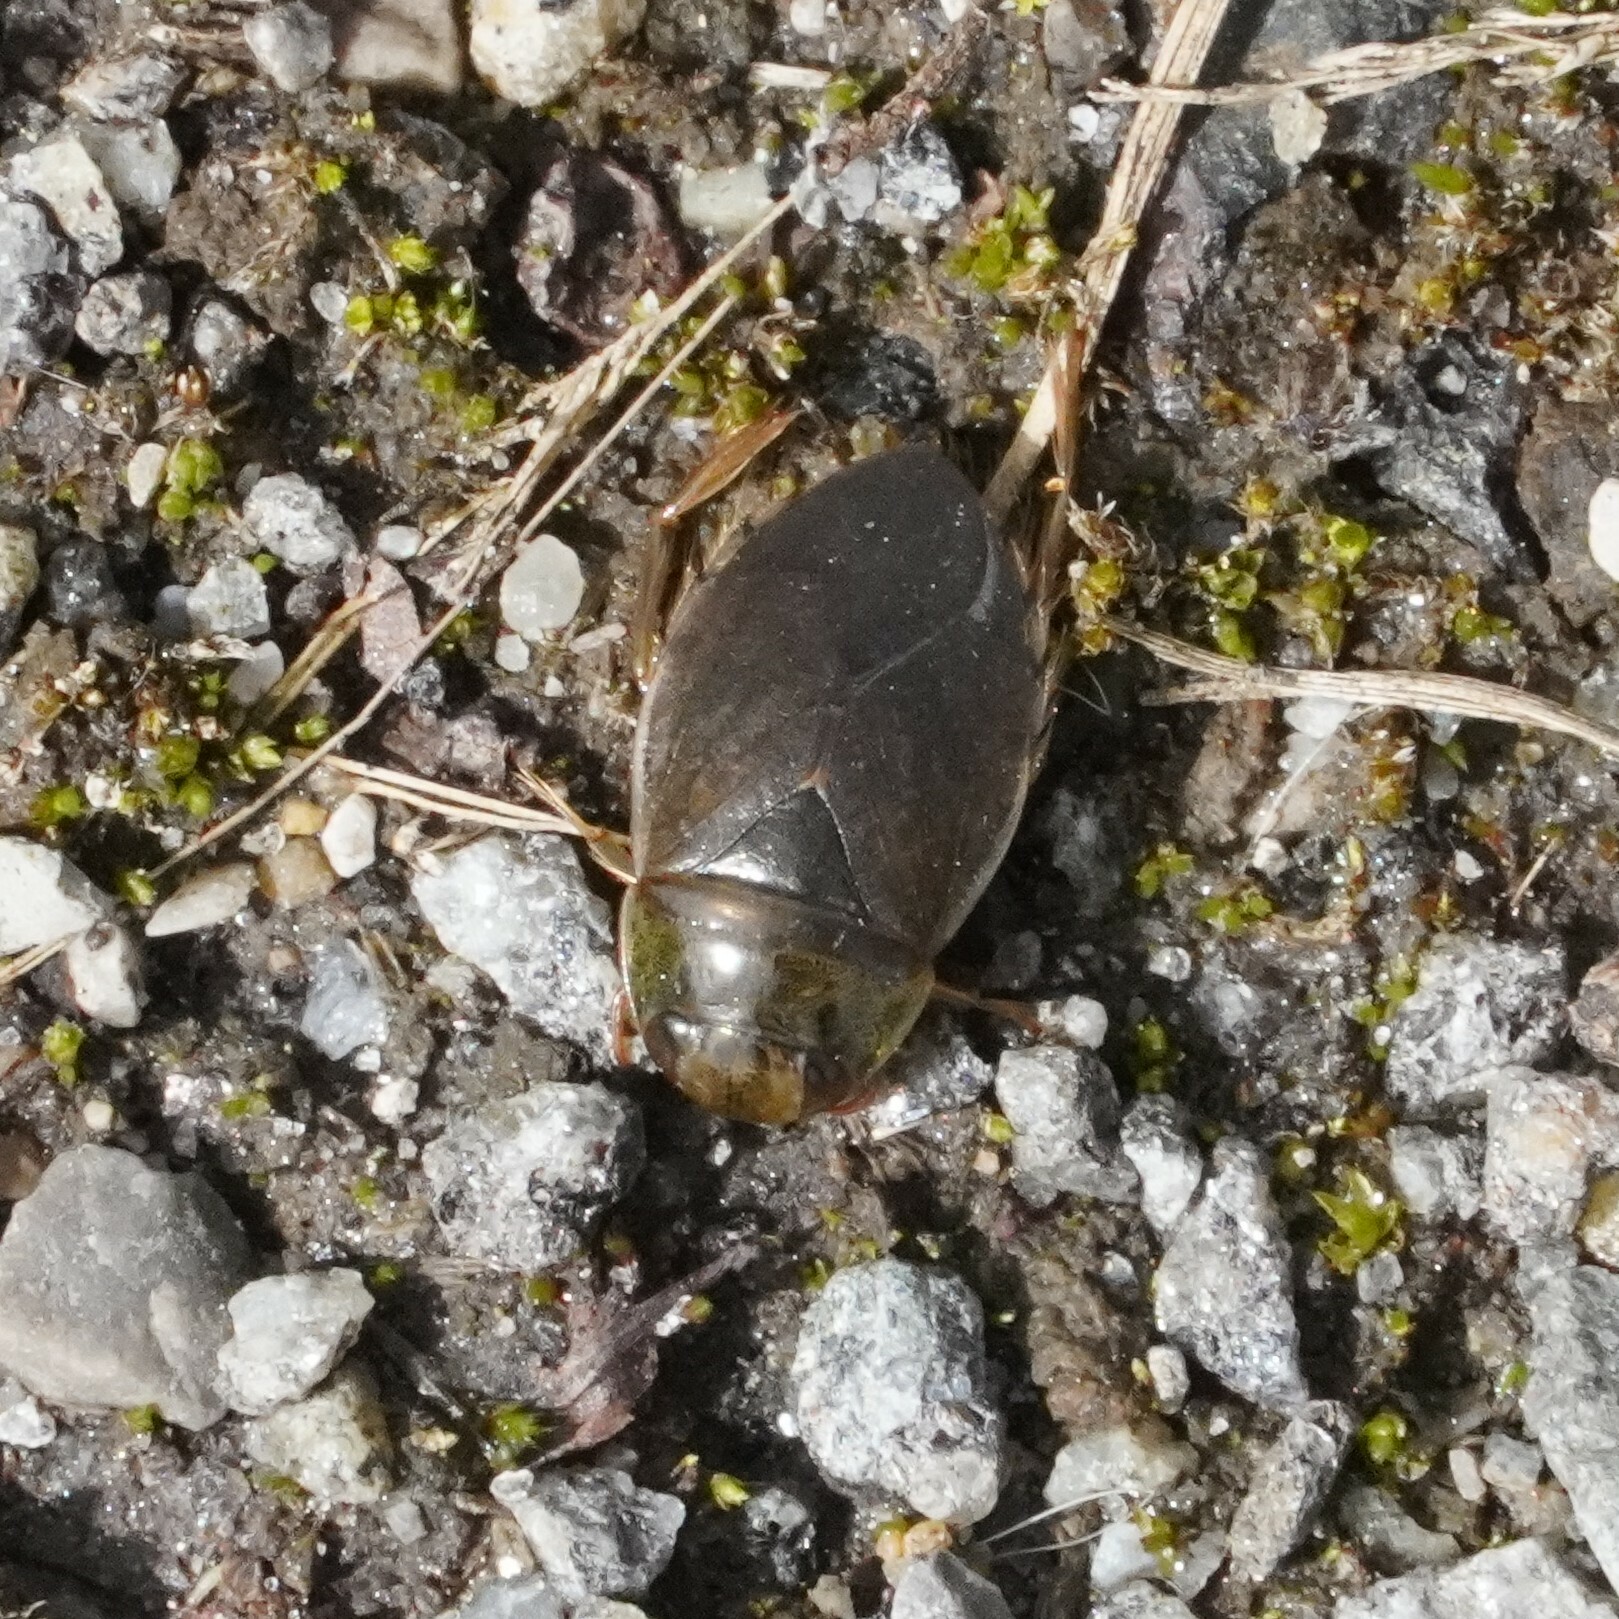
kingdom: Animalia
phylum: Arthropoda
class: Insecta
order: Hemiptera
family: Naucoridae
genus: Ilyocoris
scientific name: Ilyocoris cimicoides
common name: Saucer bugs
